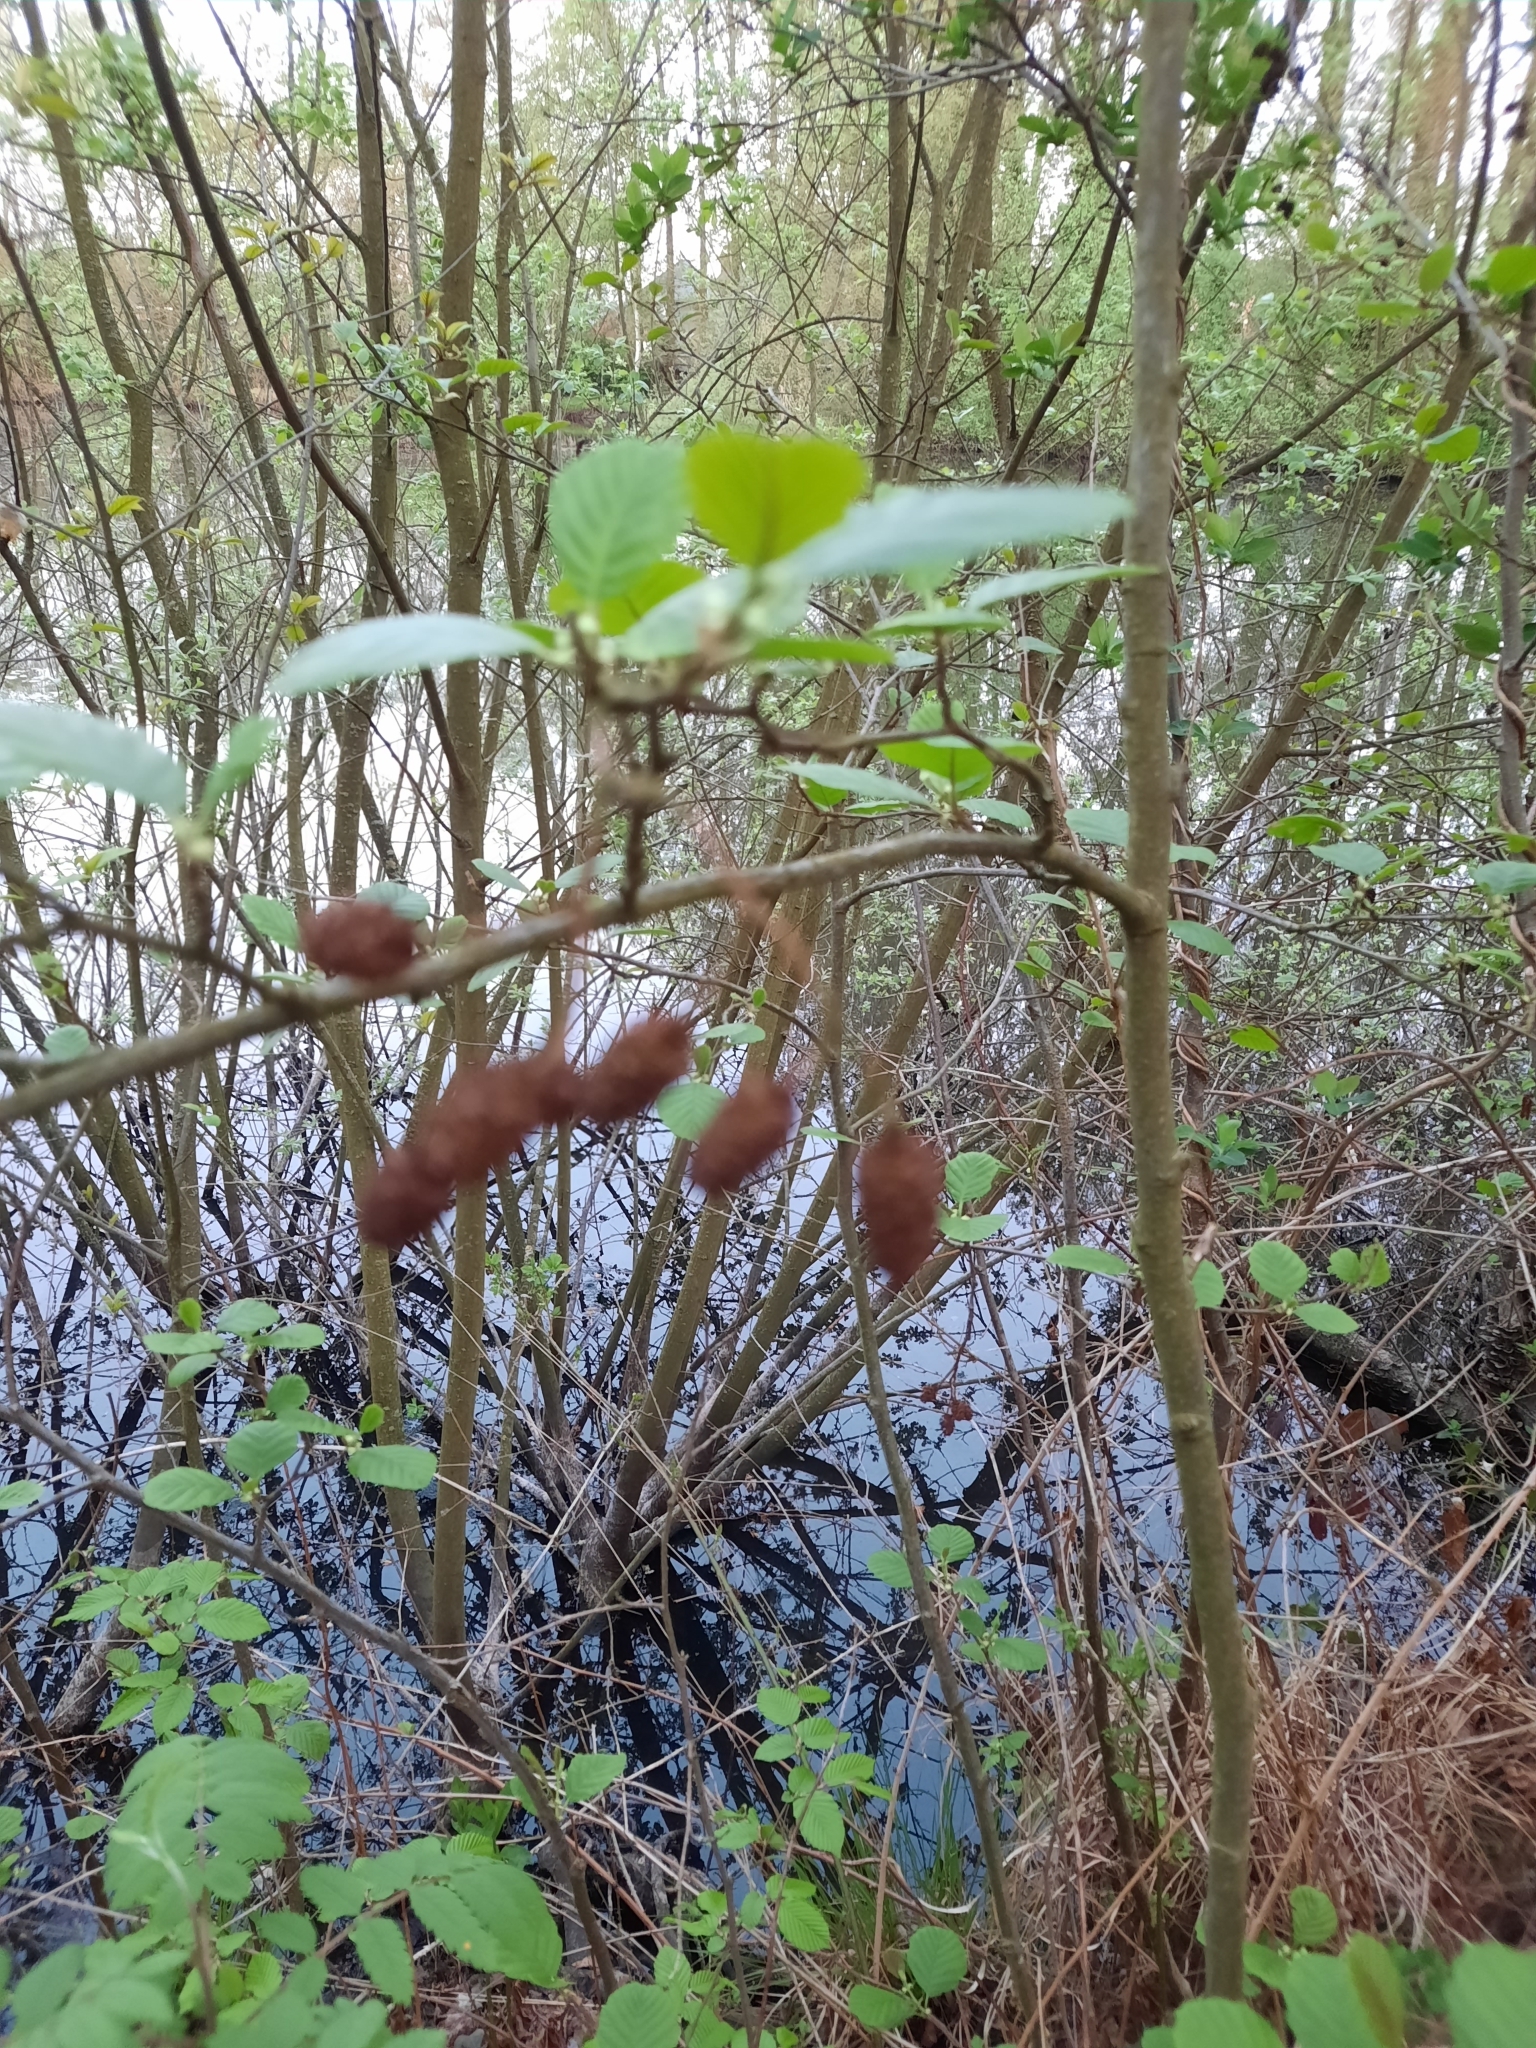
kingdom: Plantae
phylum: Tracheophyta
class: Magnoliopsida
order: Fagales
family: Betulaceae
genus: Alnus
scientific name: Alnus glutinosa
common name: Black alder
